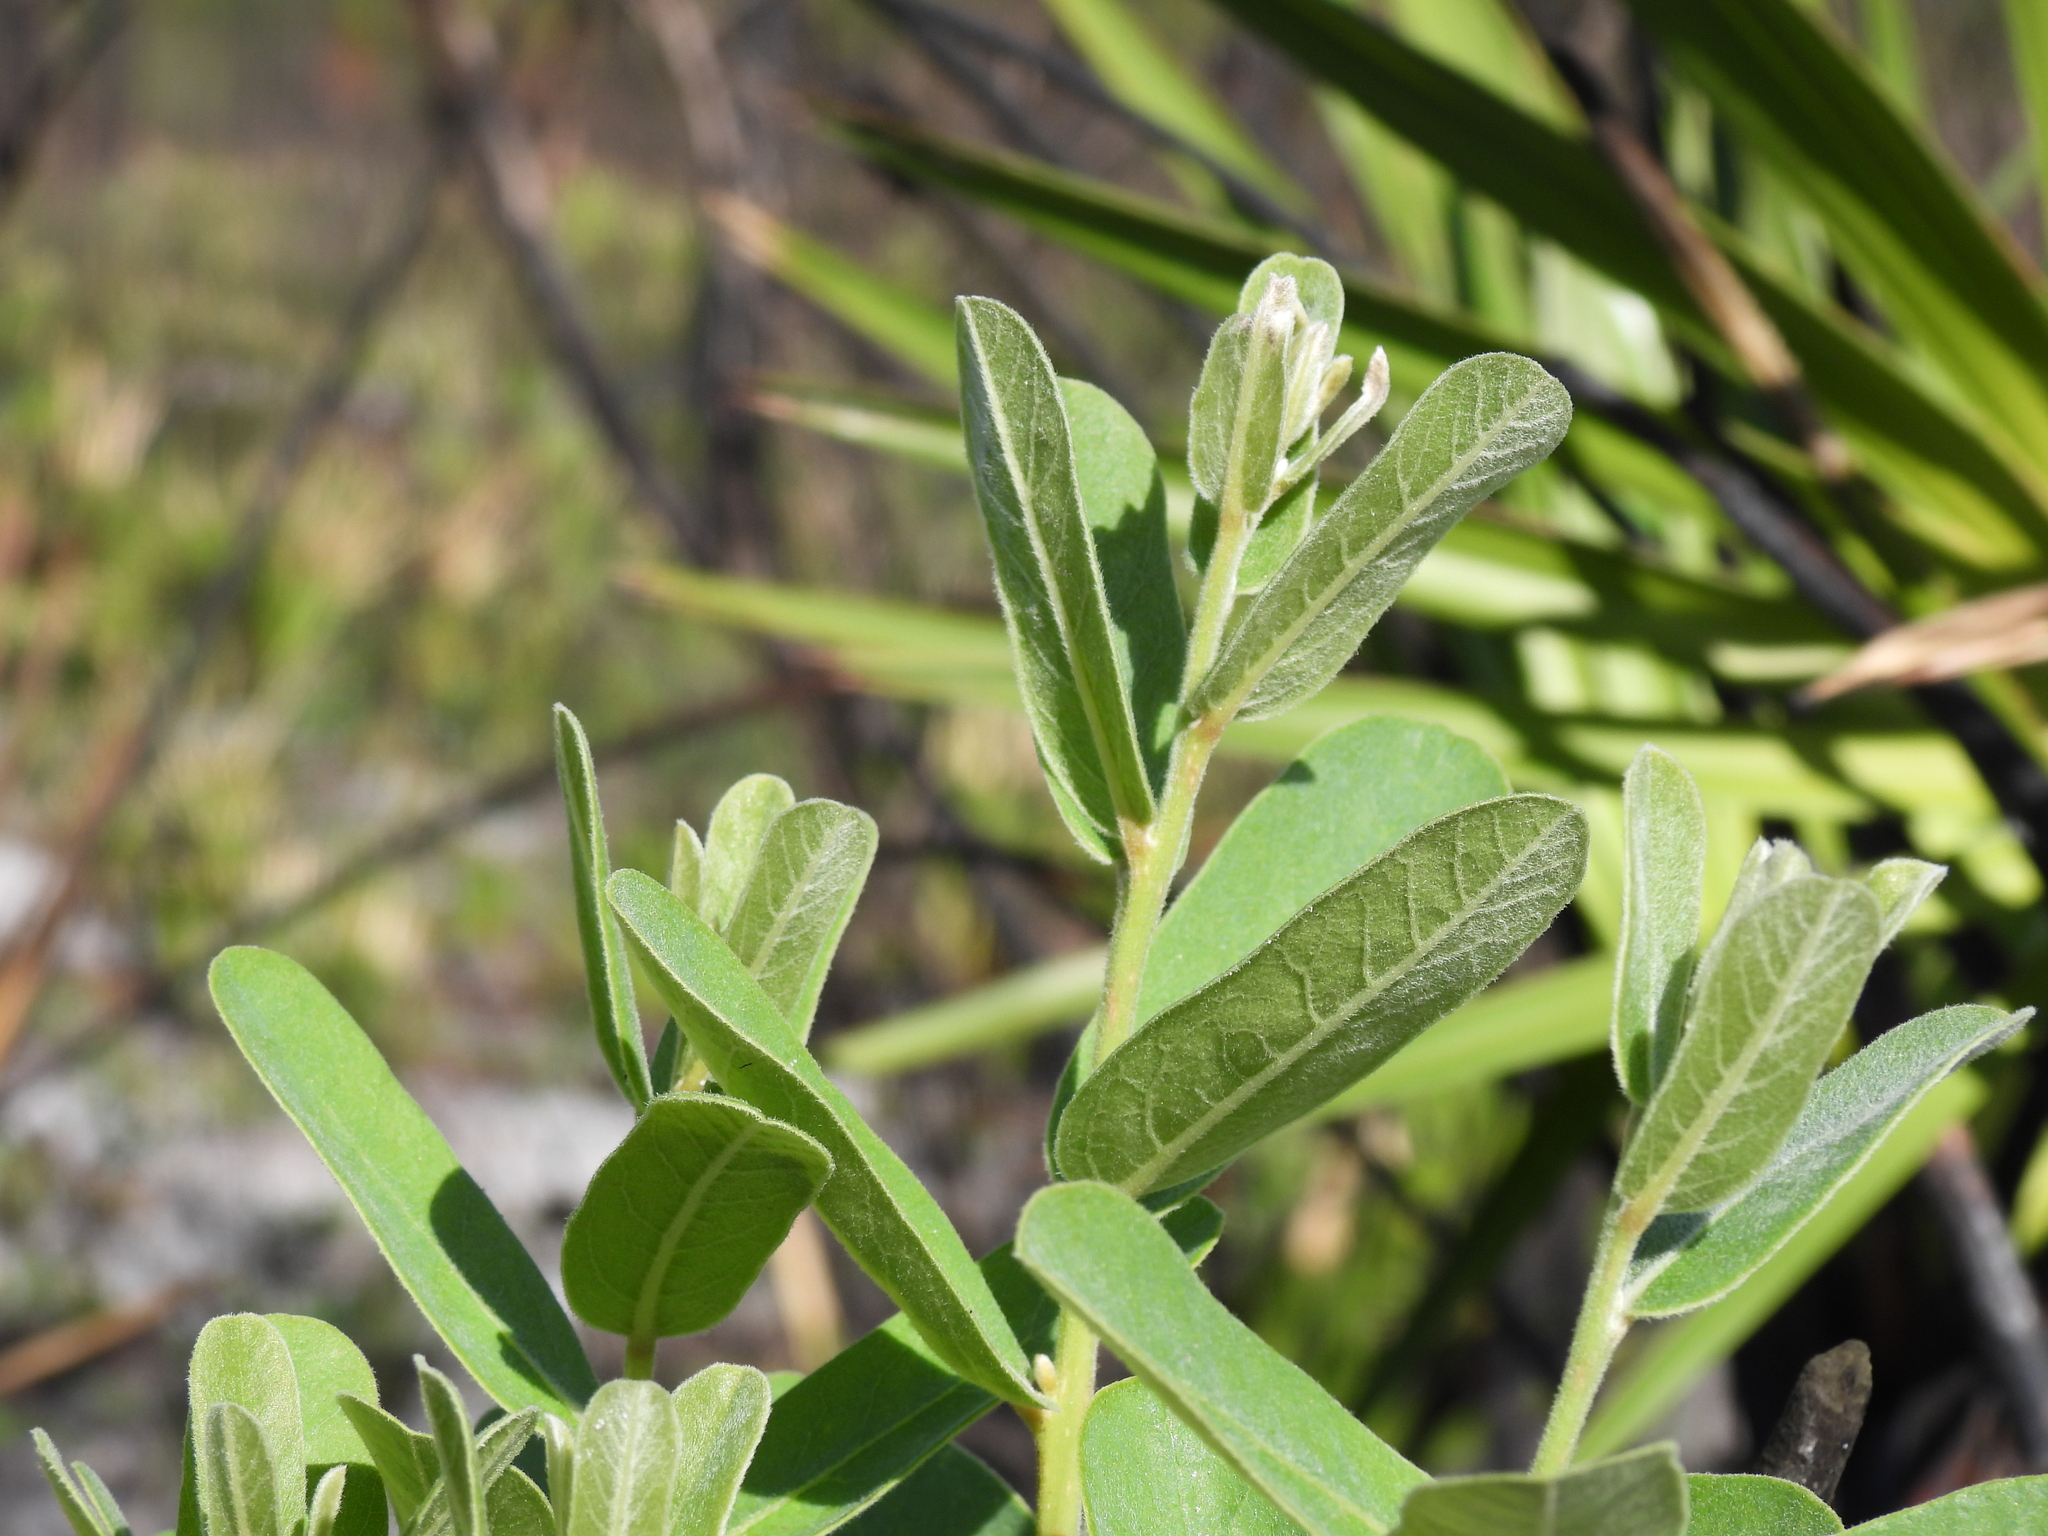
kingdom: Plantae
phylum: Tracheophyta
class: Magnoliopsida
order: Magnoliales
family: Annonaceae
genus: Asimina
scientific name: Asimina reticulata
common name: Flag pawpaw
